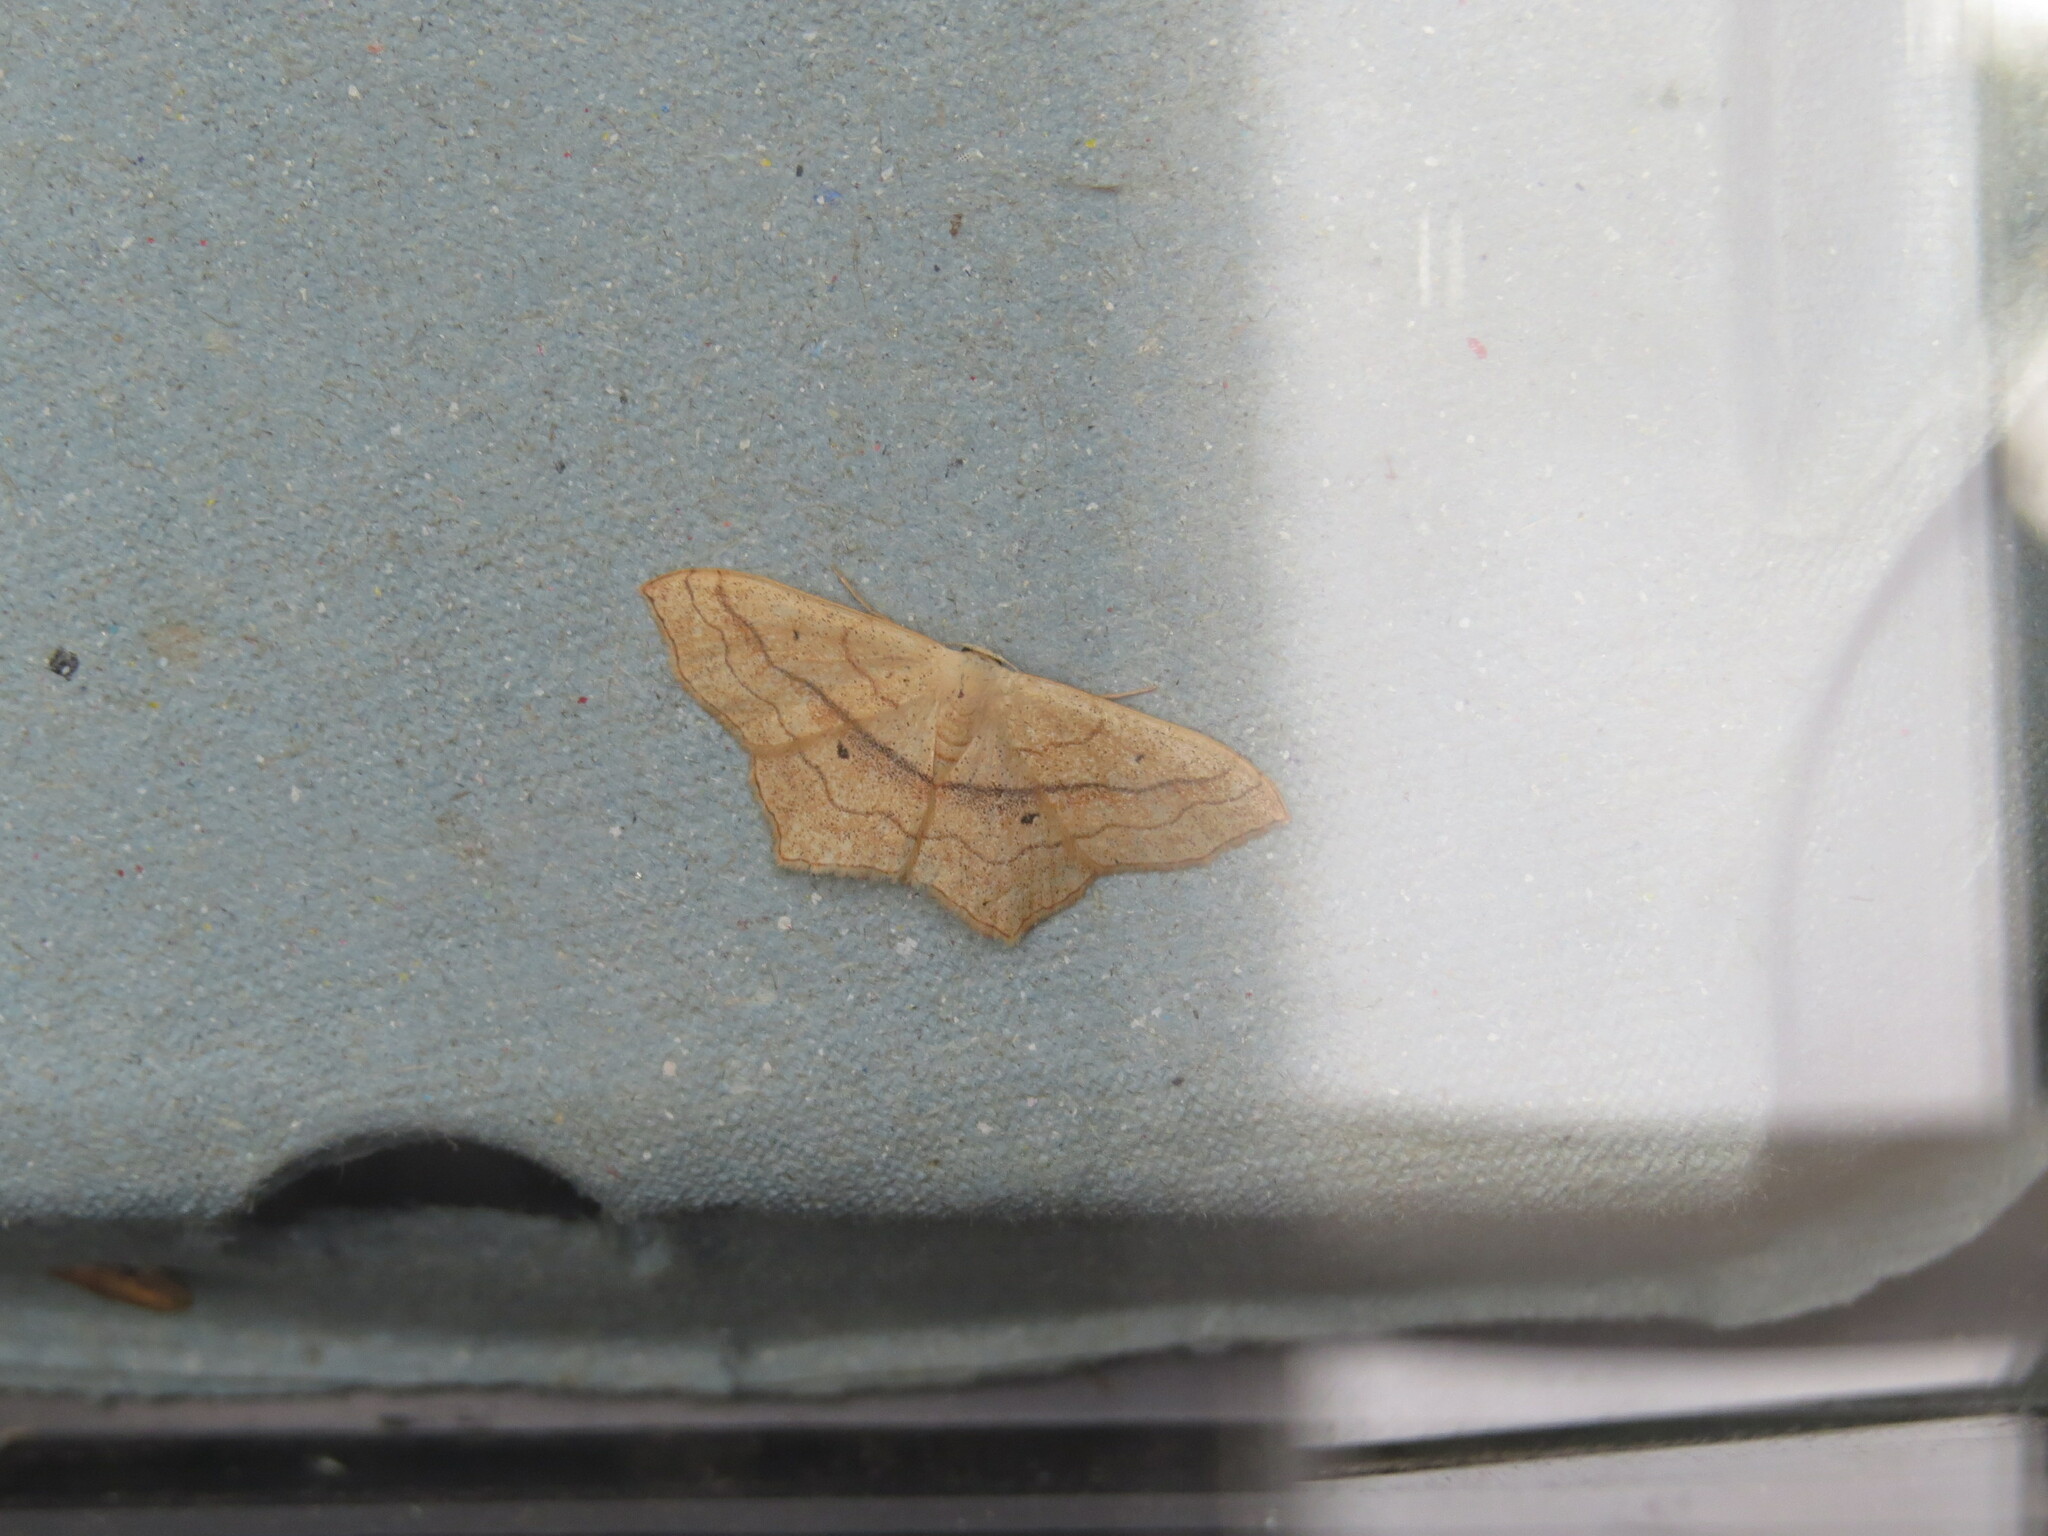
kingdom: Animalia
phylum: Arthropoda
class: Insecta
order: Lepidoptera
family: Geometridae
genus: Scopula
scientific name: Scopula imitaria
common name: Small blood-vein
